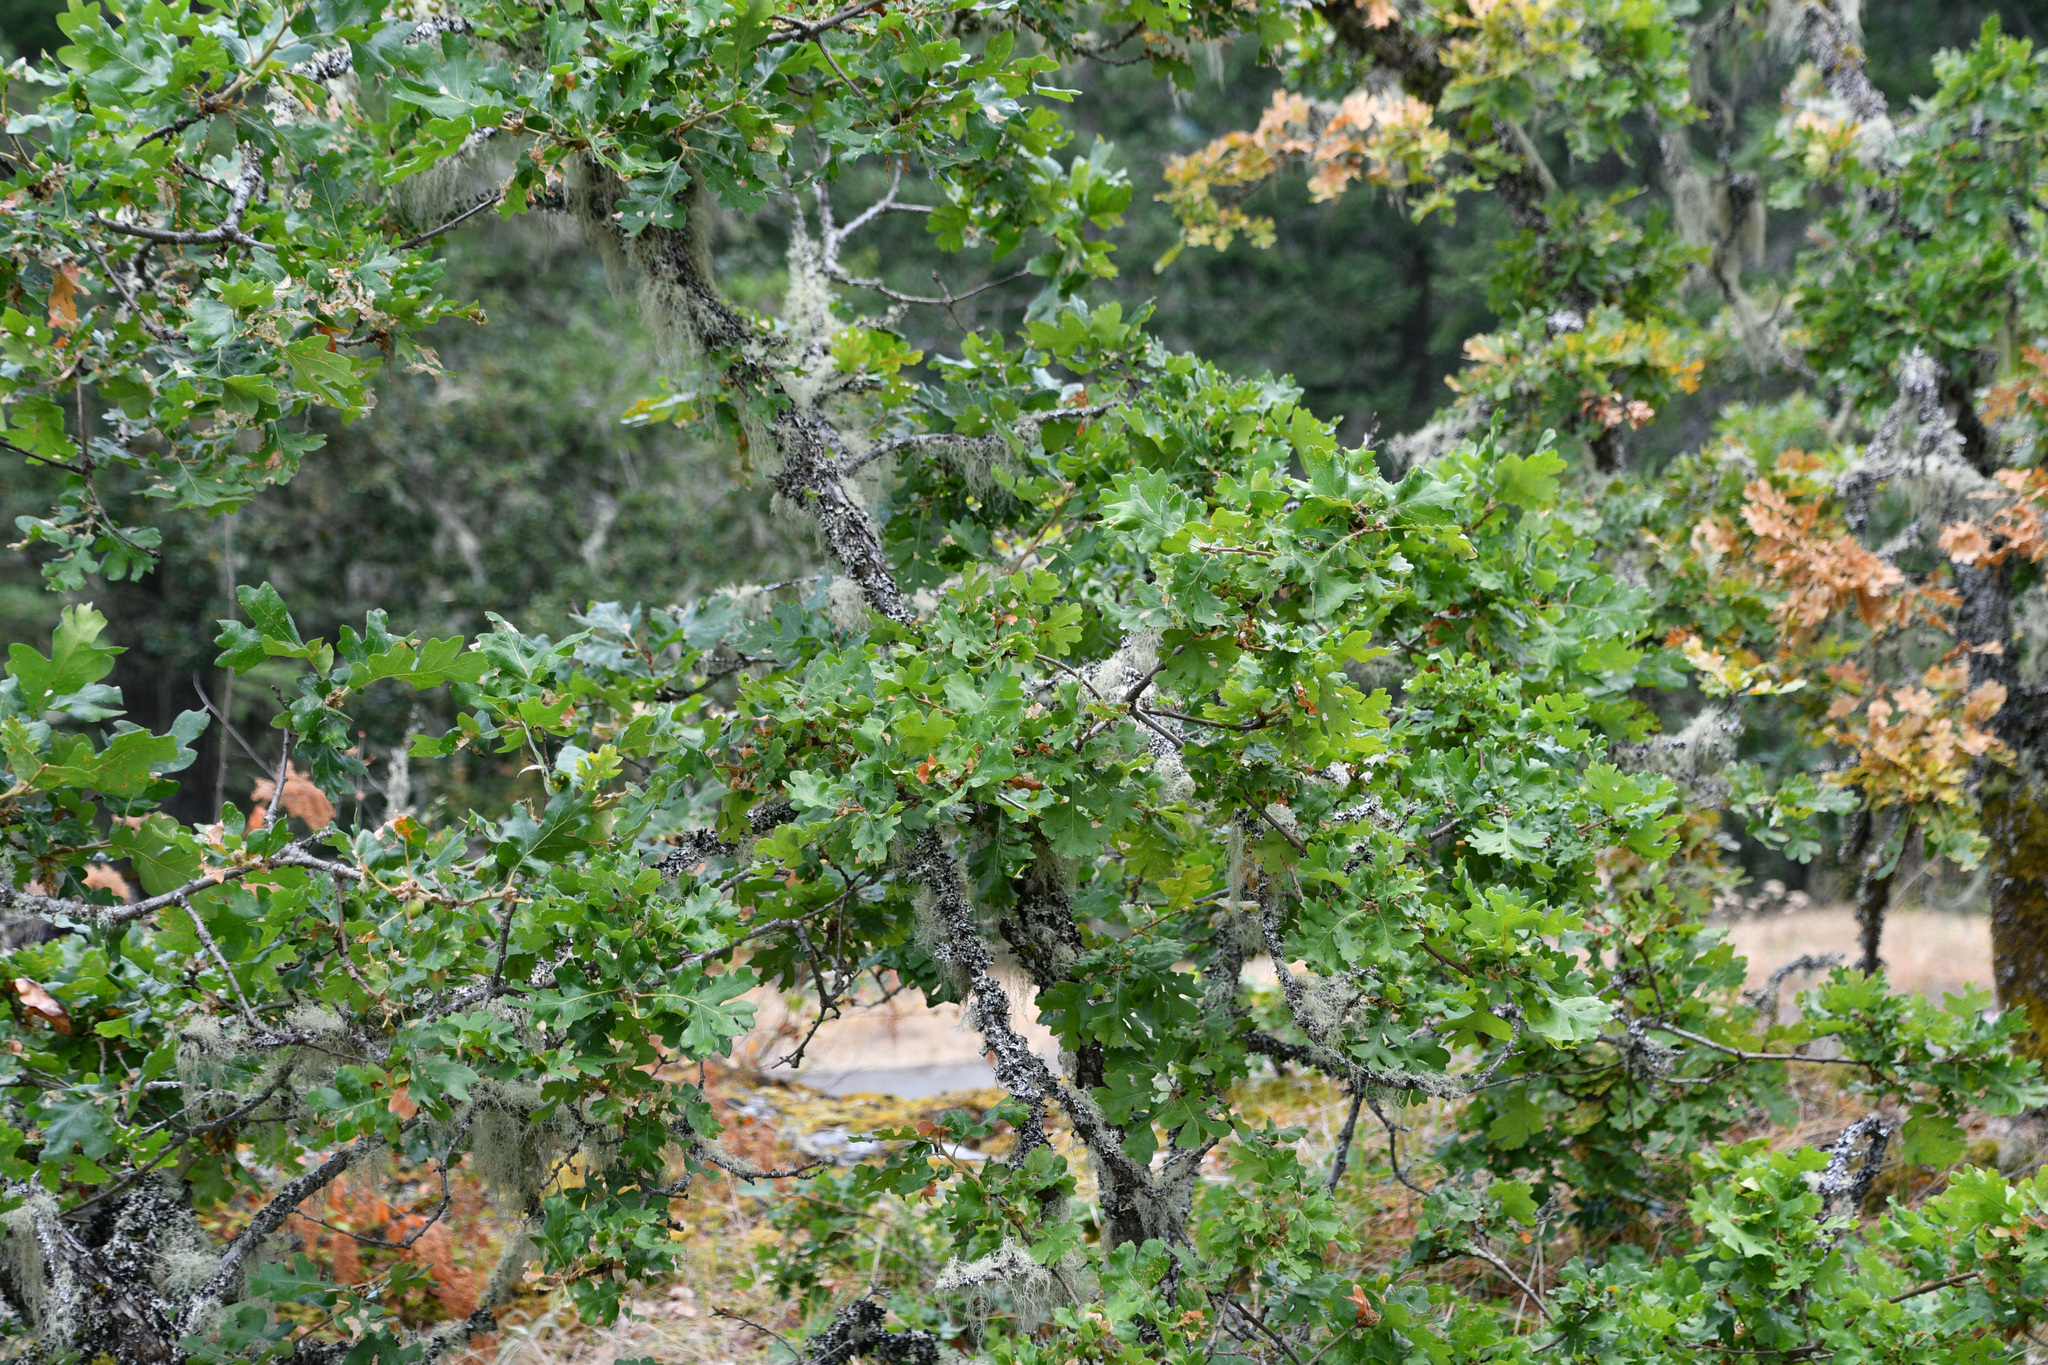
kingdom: Plantae
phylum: Tracheophyta
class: Magnoliopsida
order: Fagales
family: Fagaceae
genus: Quercus
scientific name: Quercus garryana
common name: Garry oak
